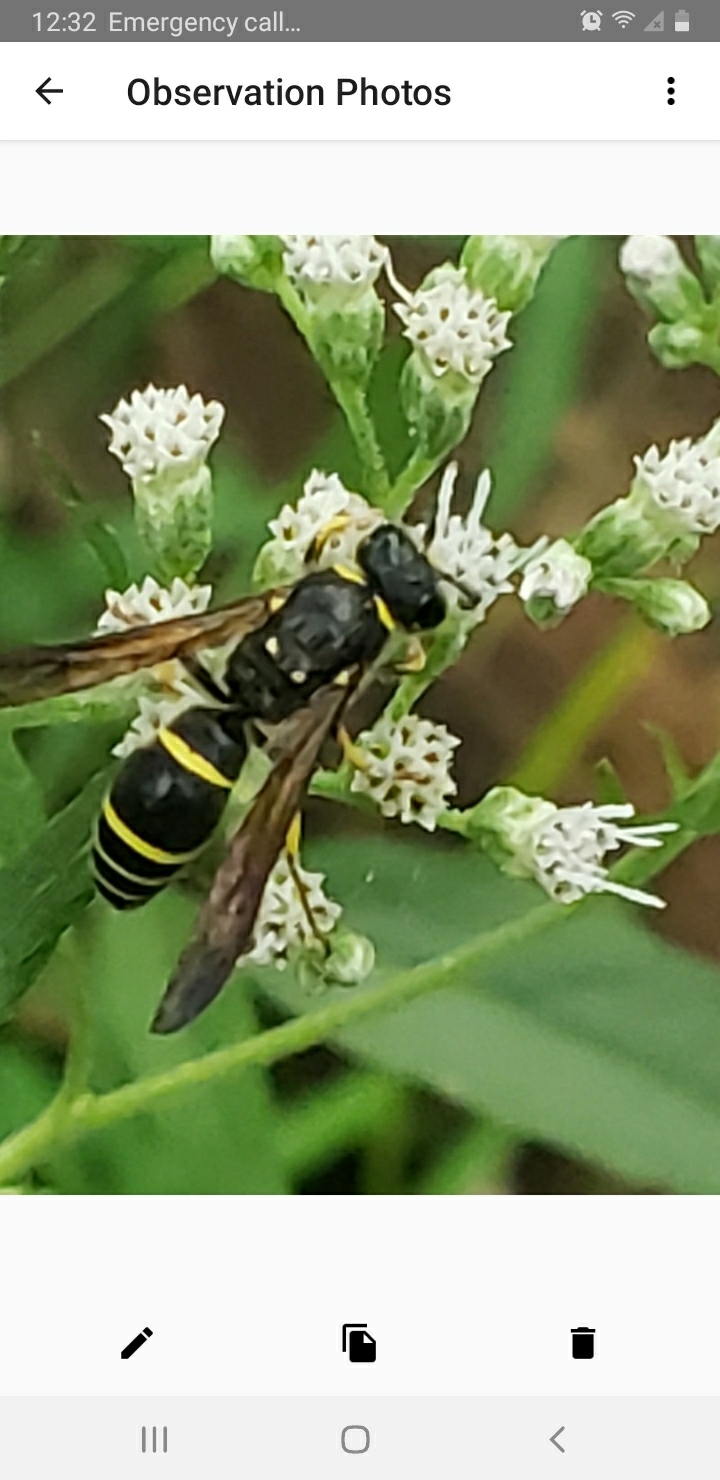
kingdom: Animalia
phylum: Arthropoda
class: Insecta
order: Hymenoptera
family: Vespidae
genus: Ancistrocerus
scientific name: Ancistrocerus
